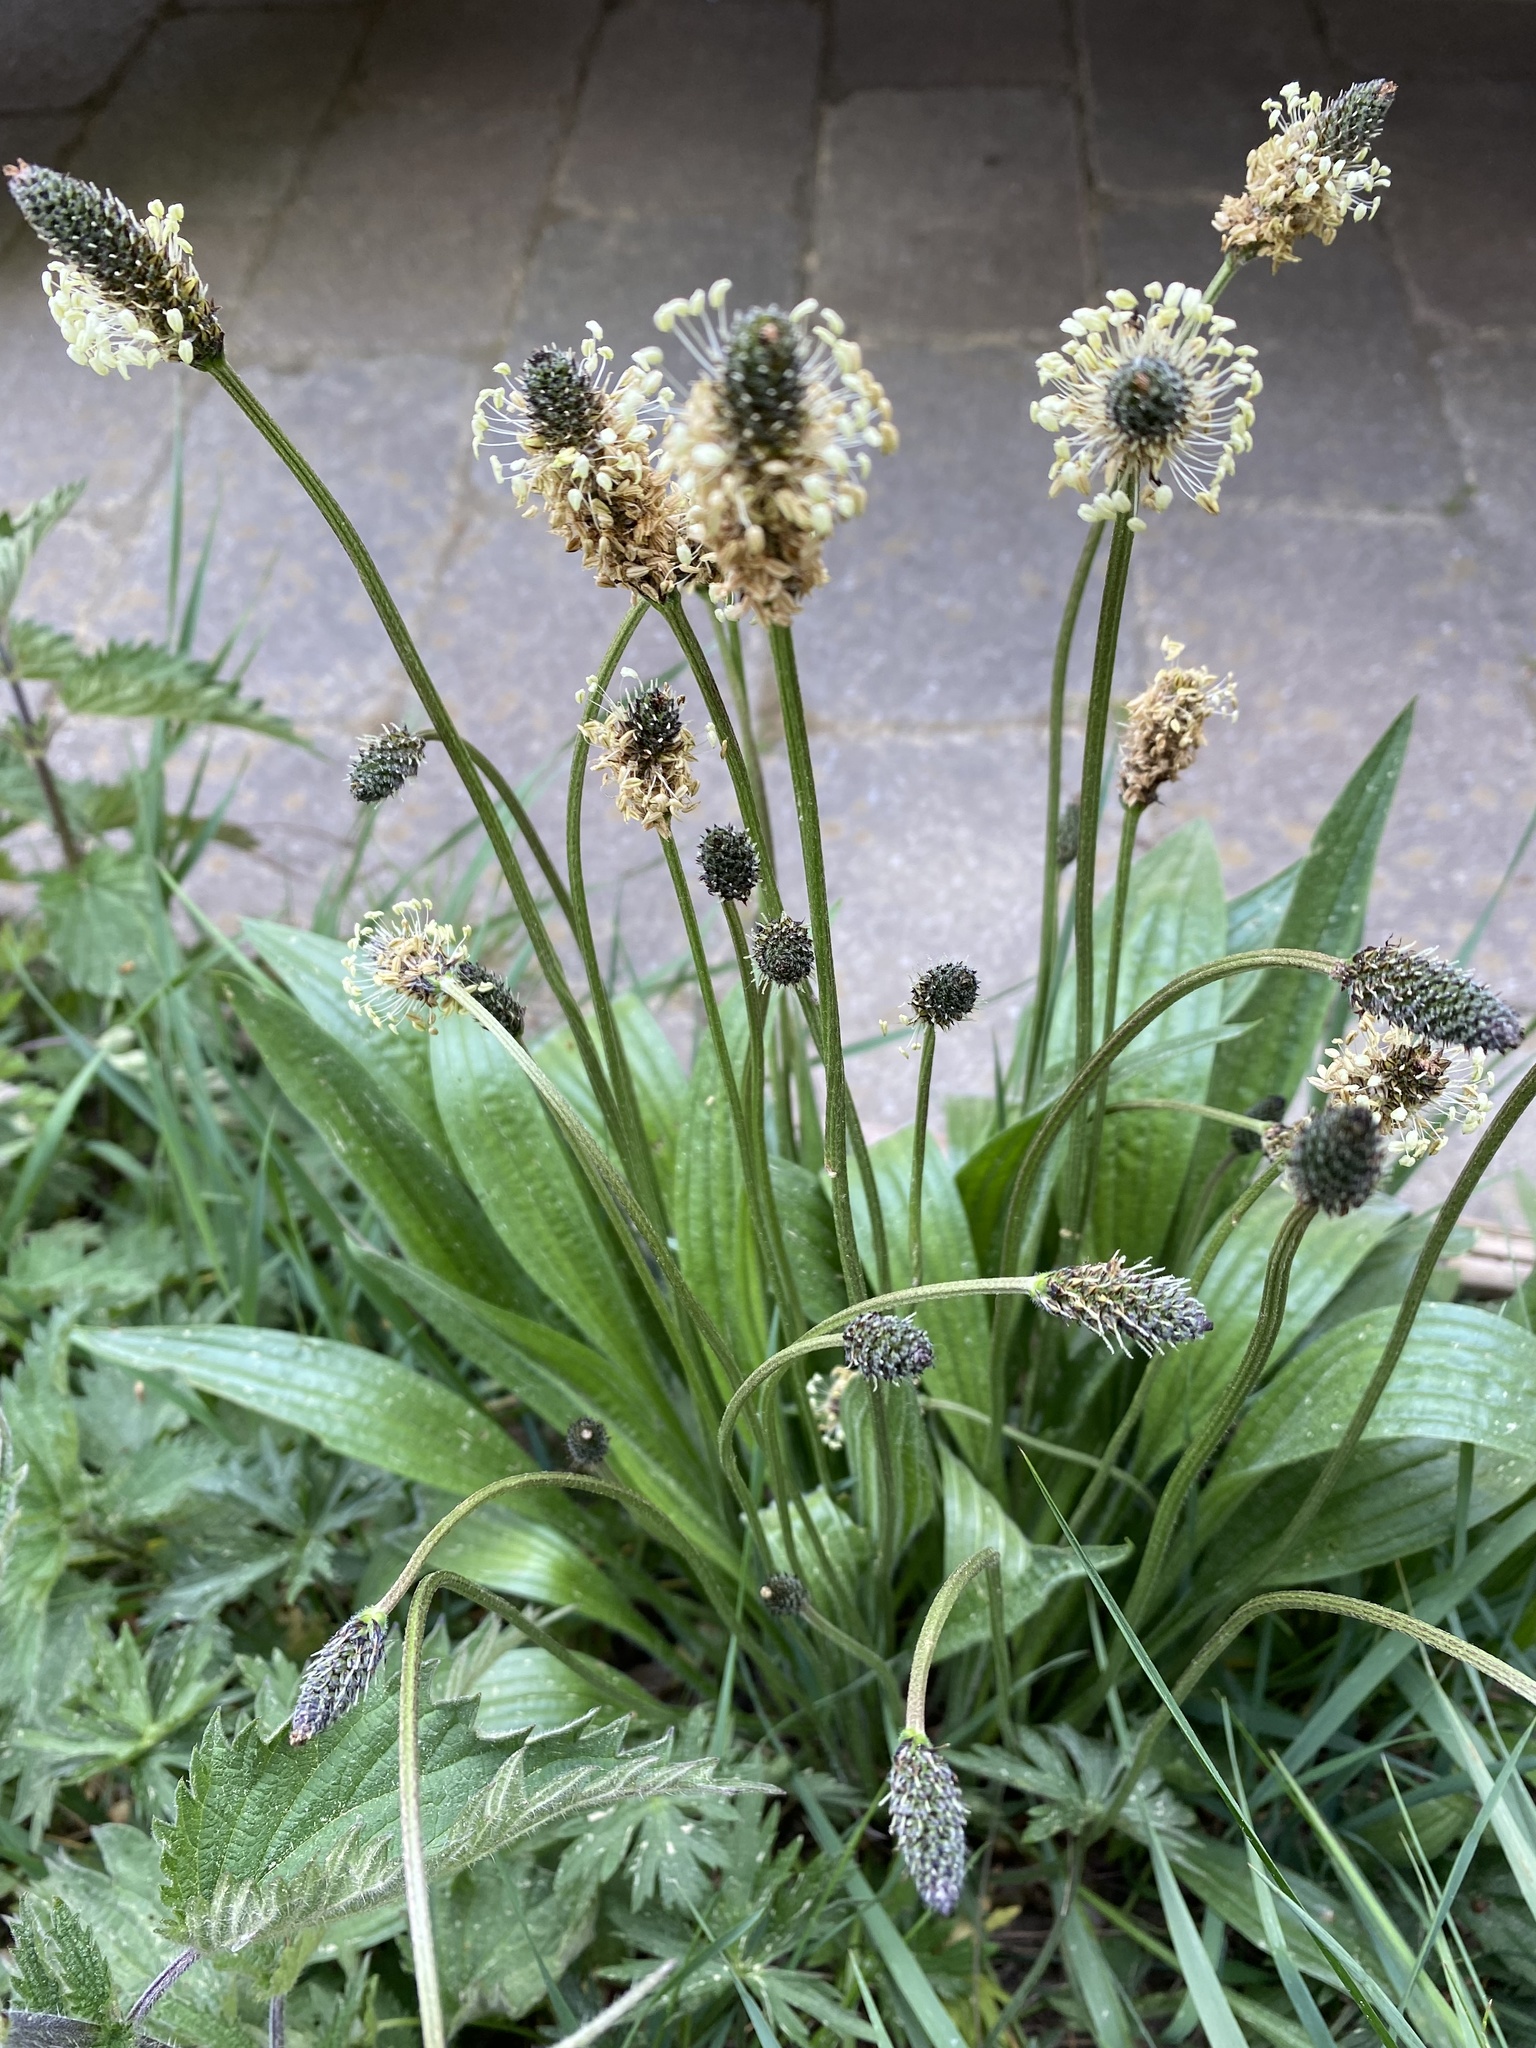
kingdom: Plantae
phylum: Tracheophyta
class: Magnoliopsida
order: Lamiales
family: Plantaginaceae
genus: Plantago
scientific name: Plantago lanceolata
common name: Ribwort plantain
